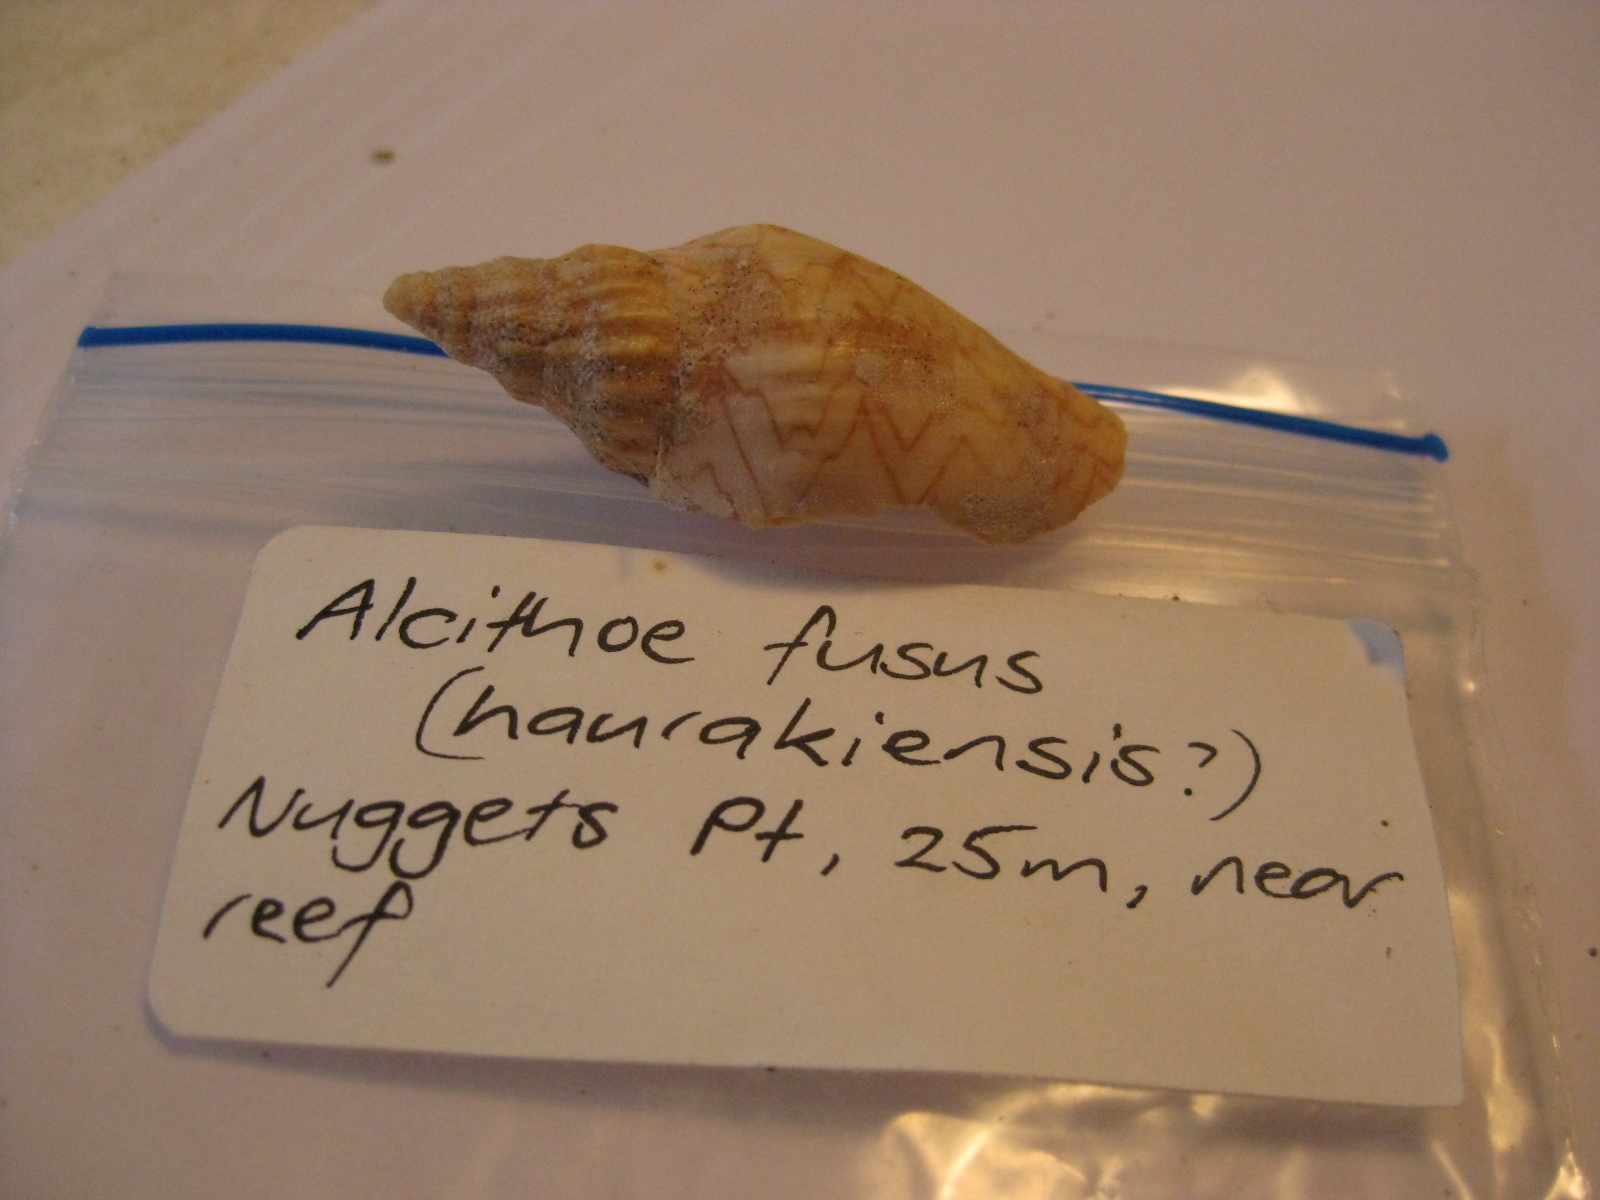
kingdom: Animalia
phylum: Mollusca
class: Gastropoda
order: Neogastropoda
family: Volutidae
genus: Alcithoe
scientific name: Alcithoe fusus
